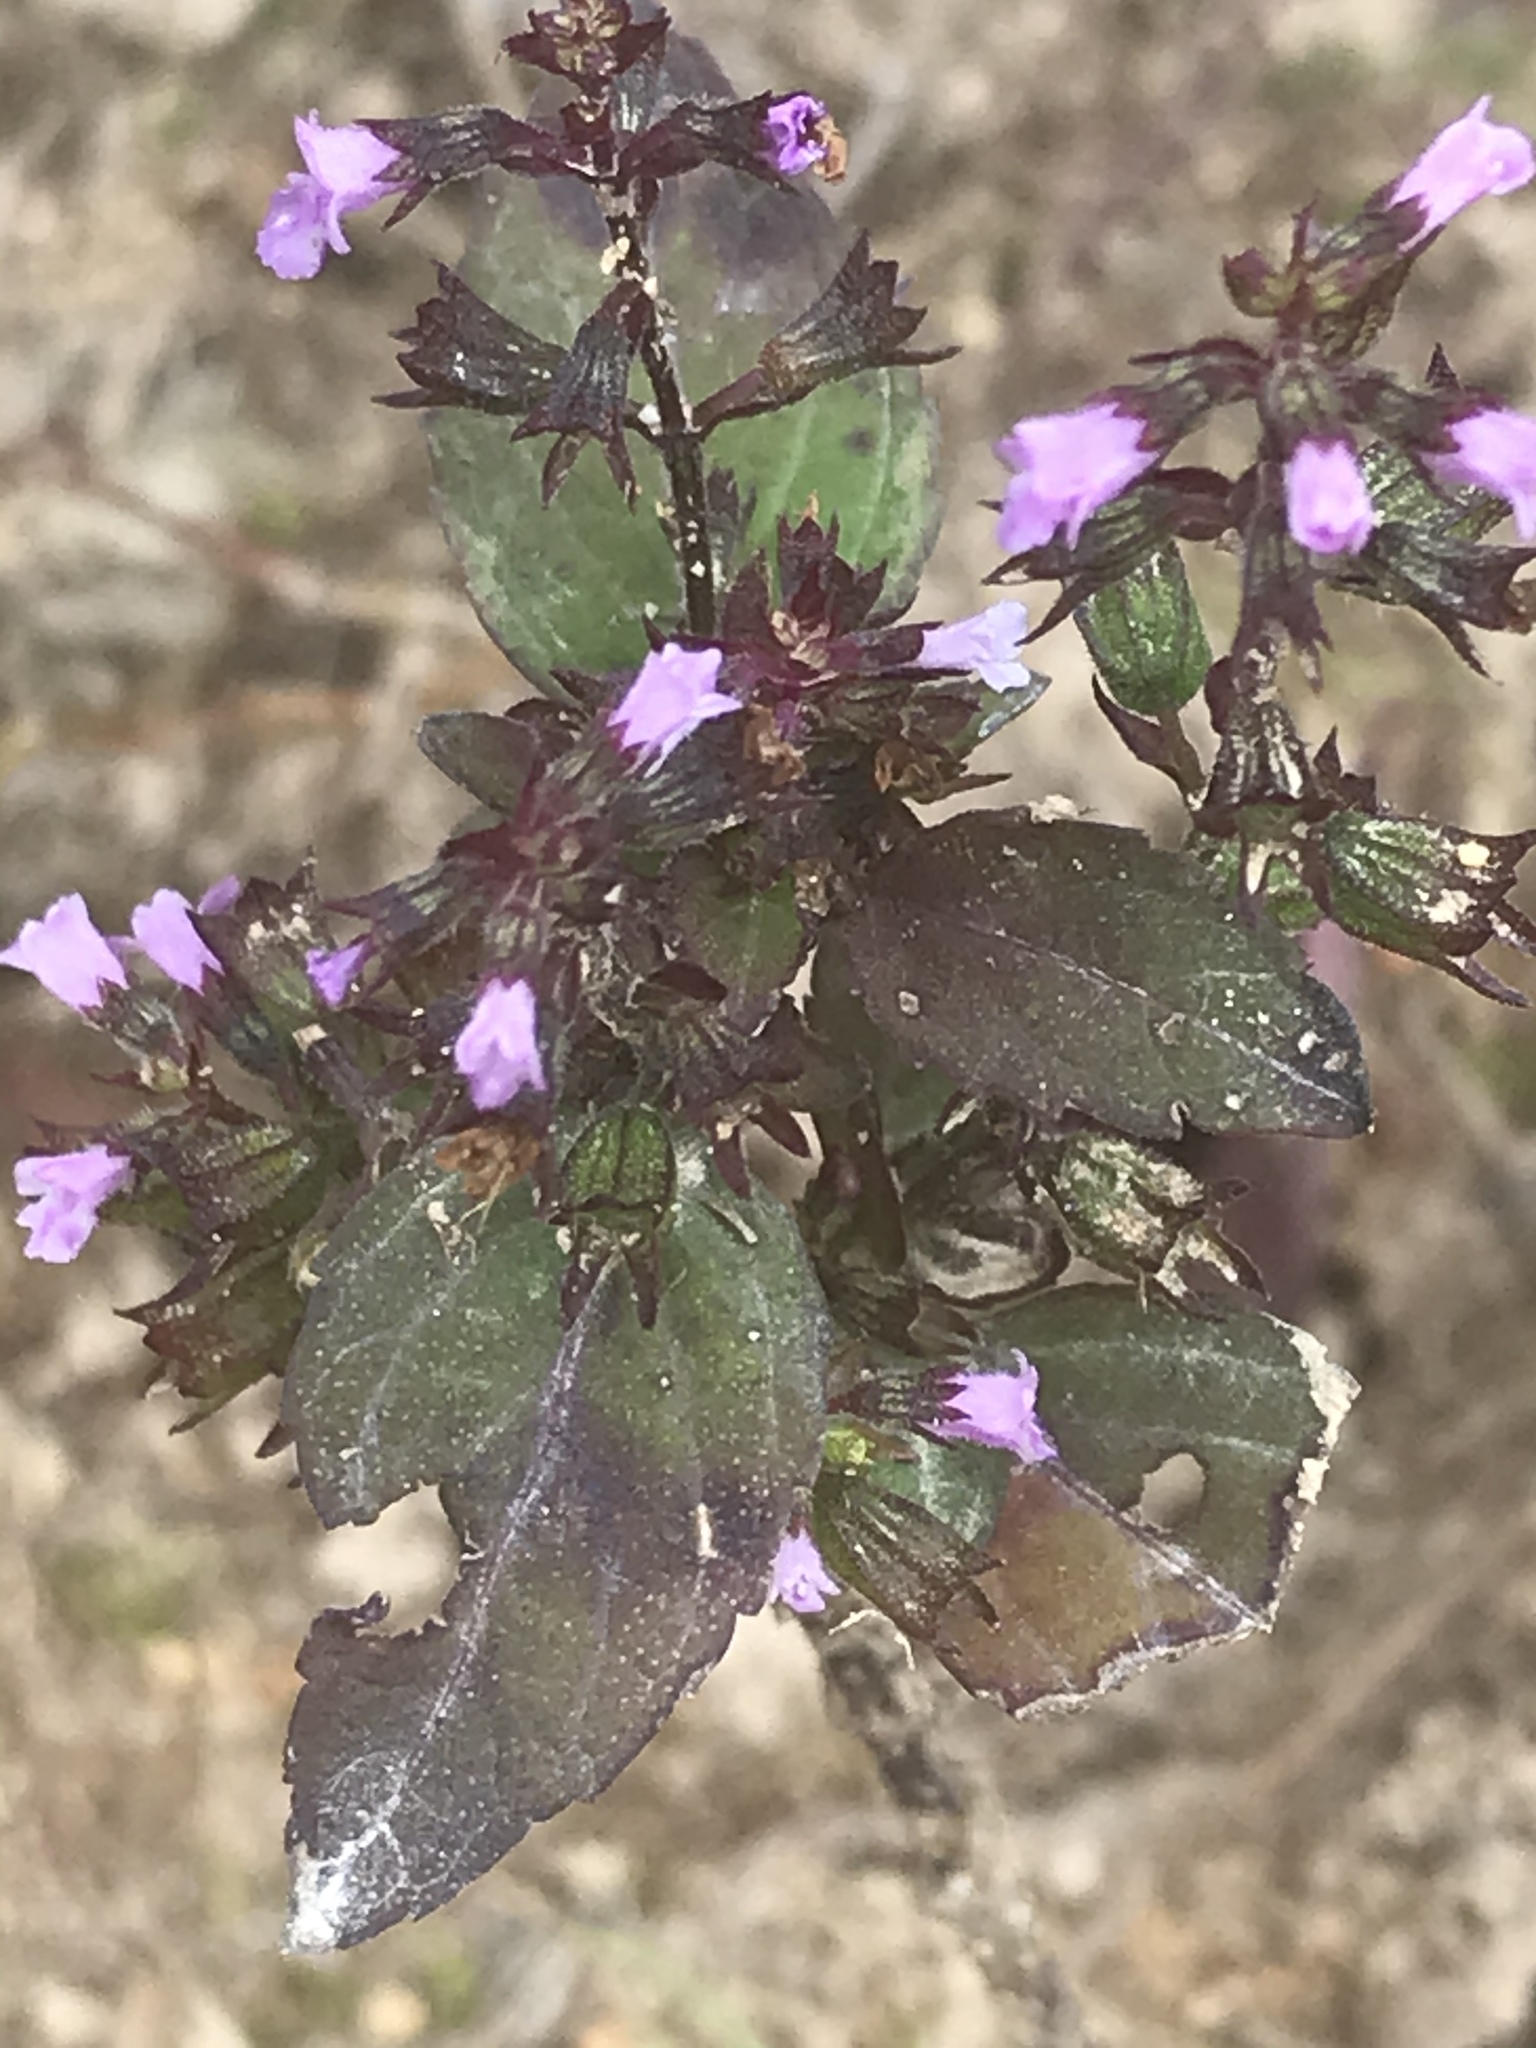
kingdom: Plantae
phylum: Tracheophyta
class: Magnoliopsida
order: Lamiales
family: Lamiaceae
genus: Mosla
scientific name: Mosla dianthera
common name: Miniature beefsteakplant
